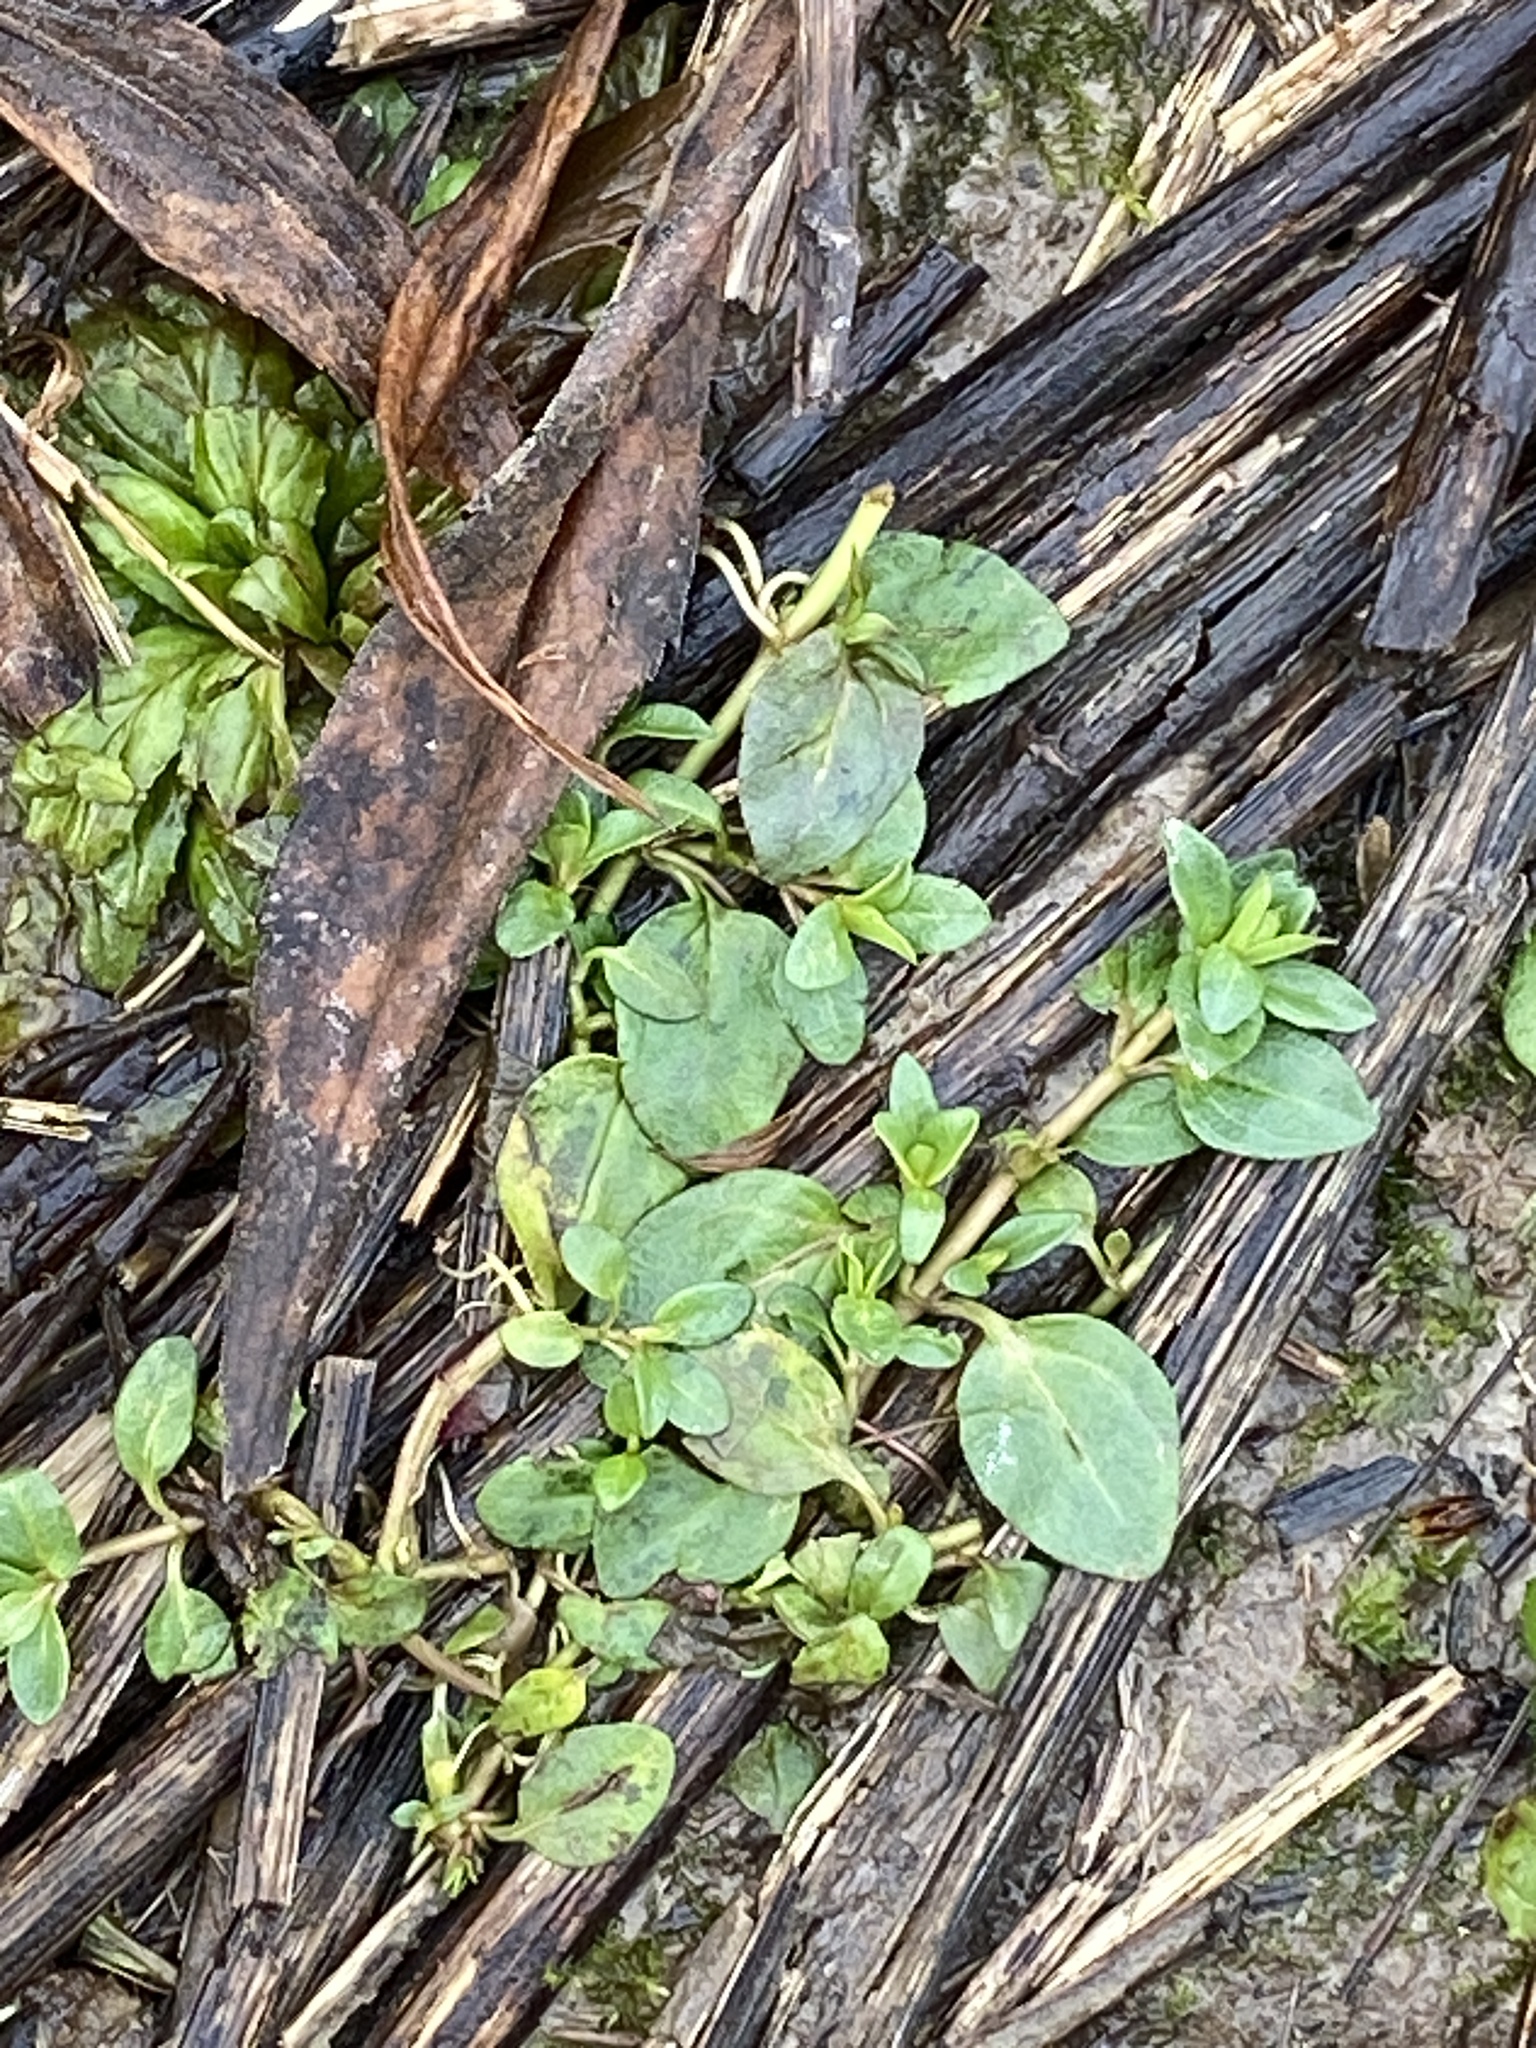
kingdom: Plantae
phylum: Tracheophyta
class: Magnoliopsida
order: Lamiales
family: Plantaginaceae
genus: Veronica
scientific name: Veronica serpyllifolia
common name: Thyme-leaved speedwell
